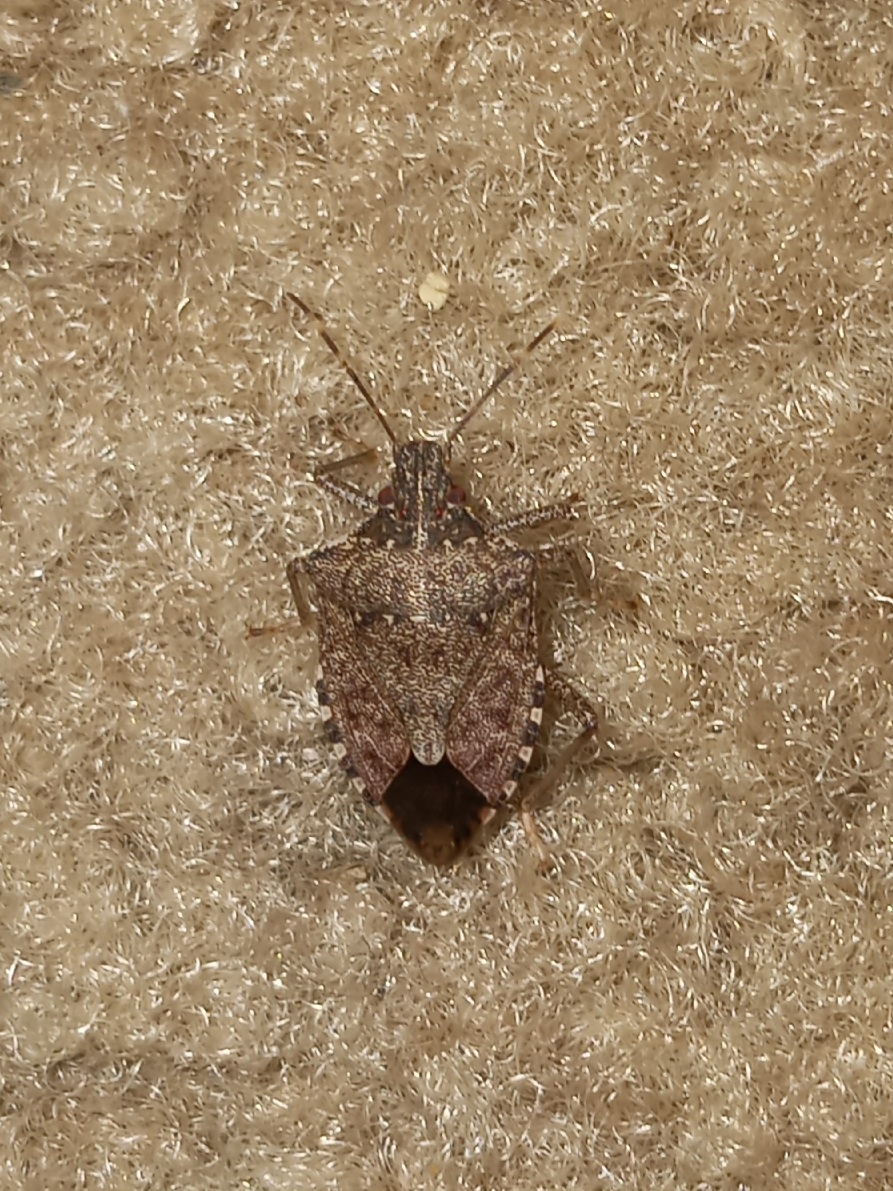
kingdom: Animalia
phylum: Arthropoda
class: Insecta
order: Hemiptera
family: Pentatomidae
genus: Halyomorpha
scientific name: Halyomorpha halys
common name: Brown marmorated stink bug
